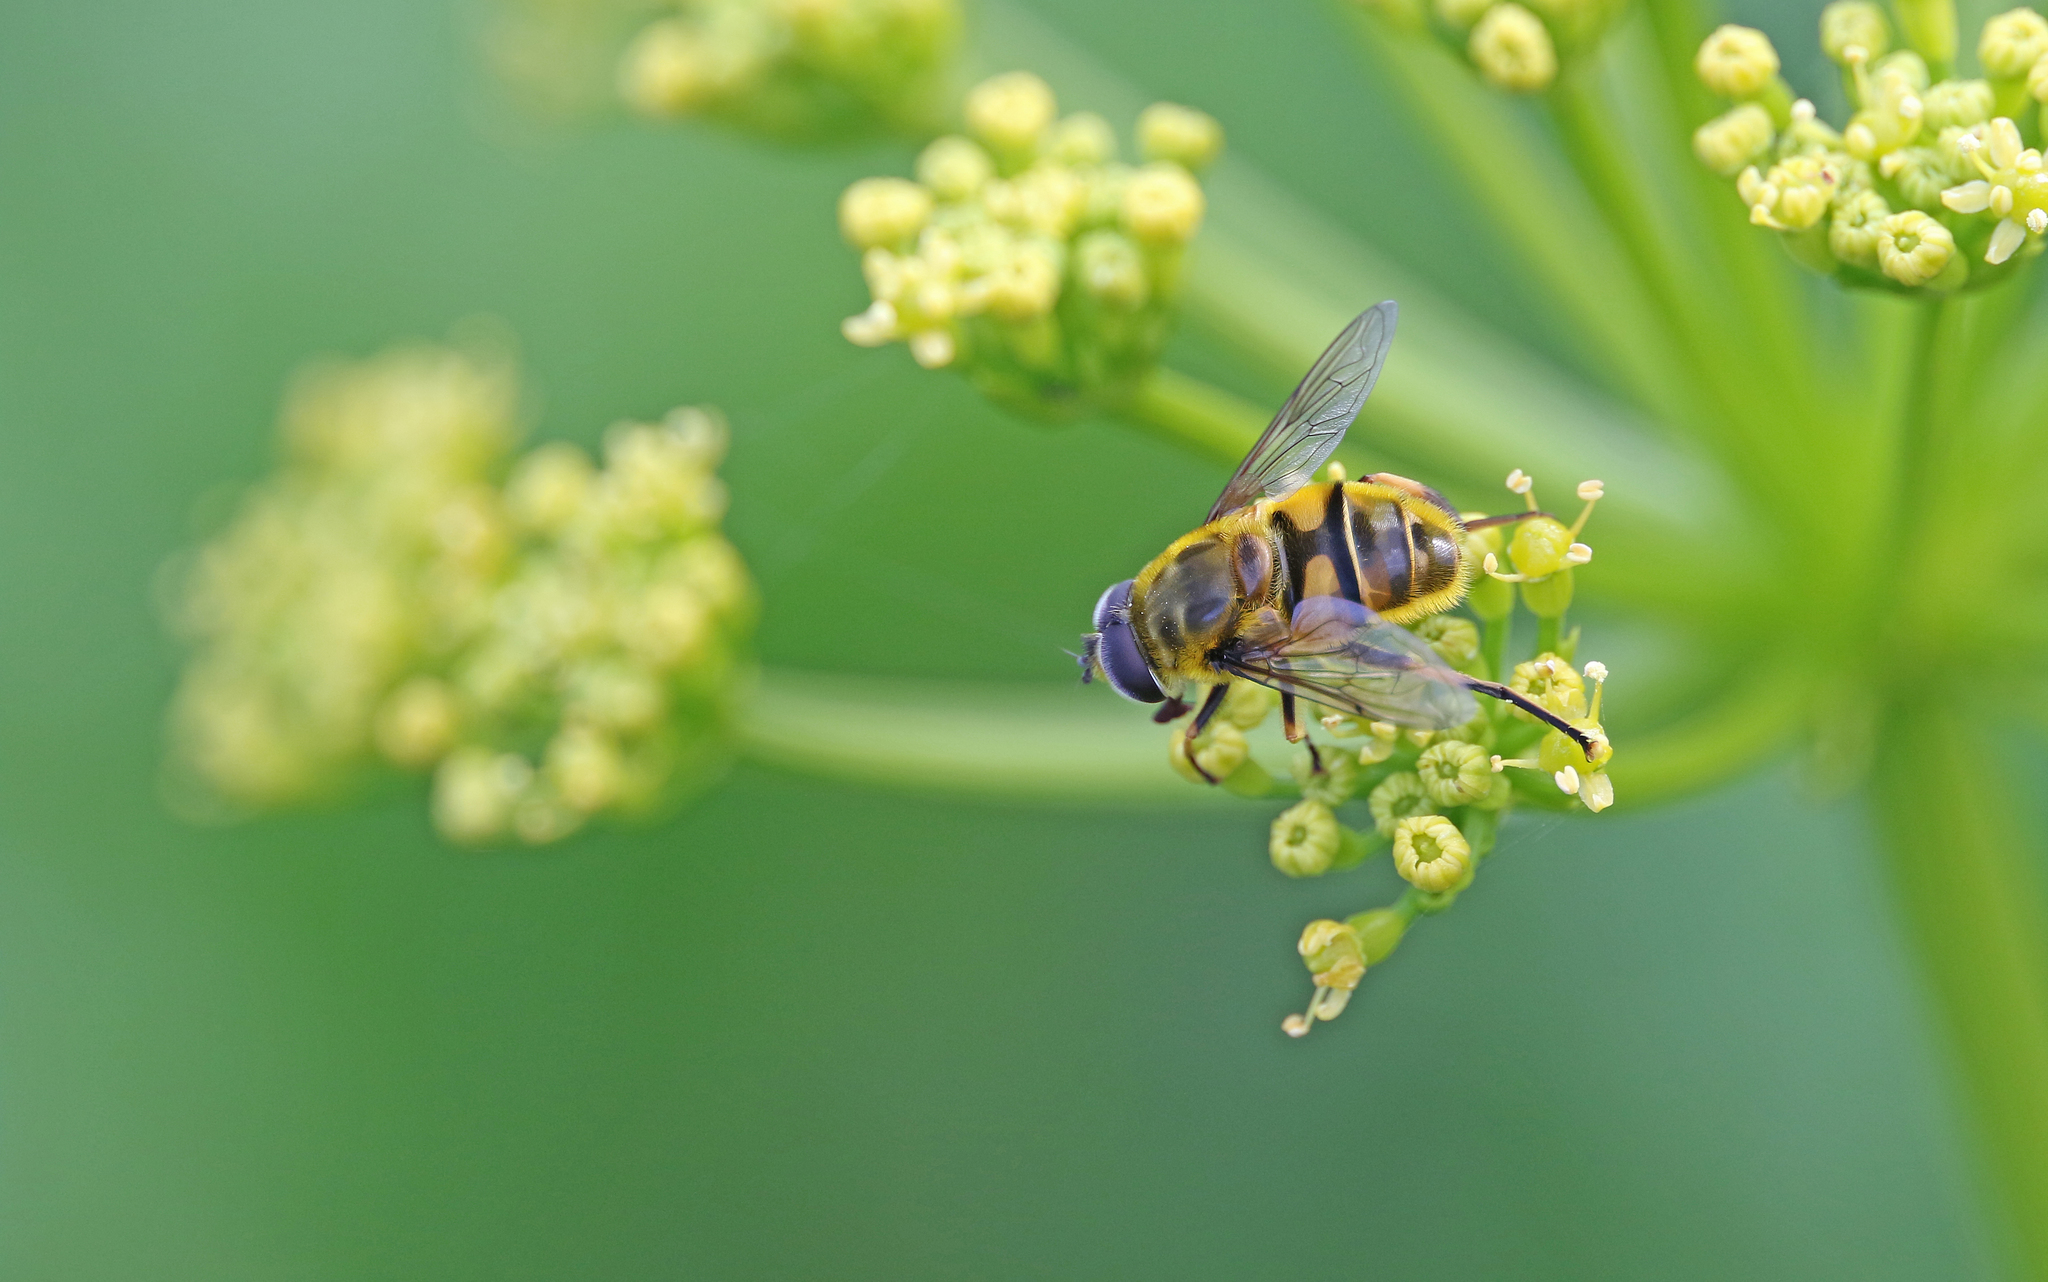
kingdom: Animalia
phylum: Arthropoda
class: Insecta
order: Diptera
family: Syrphidae
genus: Myathropa
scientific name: Myathropa florea
